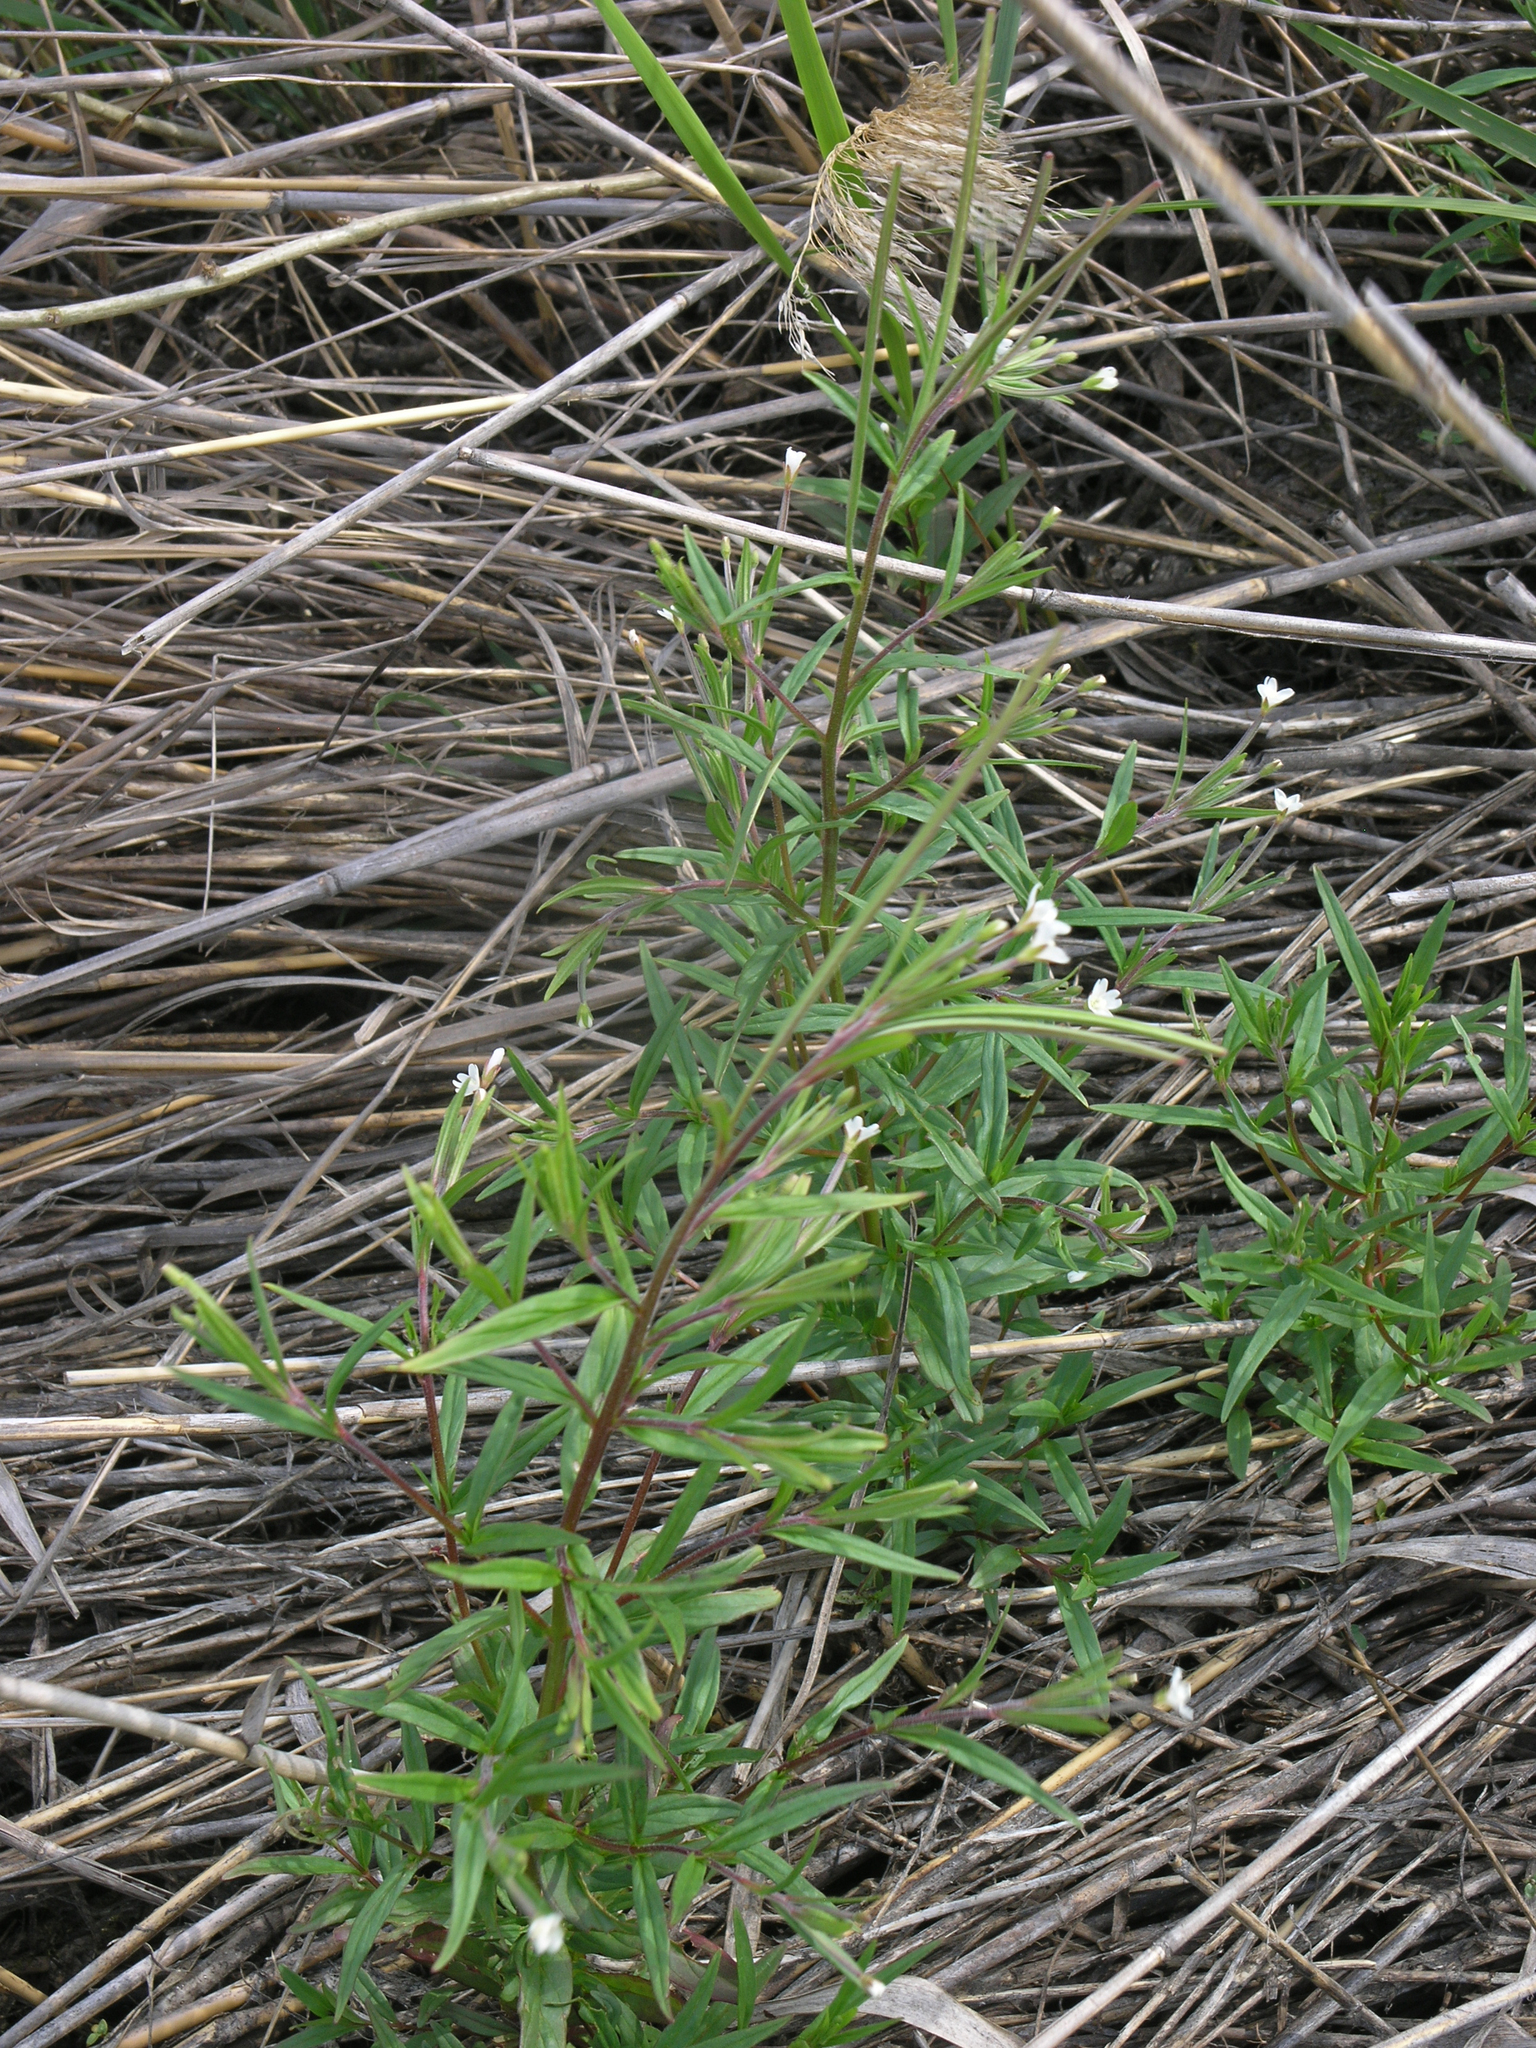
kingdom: Plantae
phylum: Tracheophyta
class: Magnoliopsida
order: Myrtales
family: Onagraceae
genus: Epilobium
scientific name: Epilobium palustre
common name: Marsh willowherb
